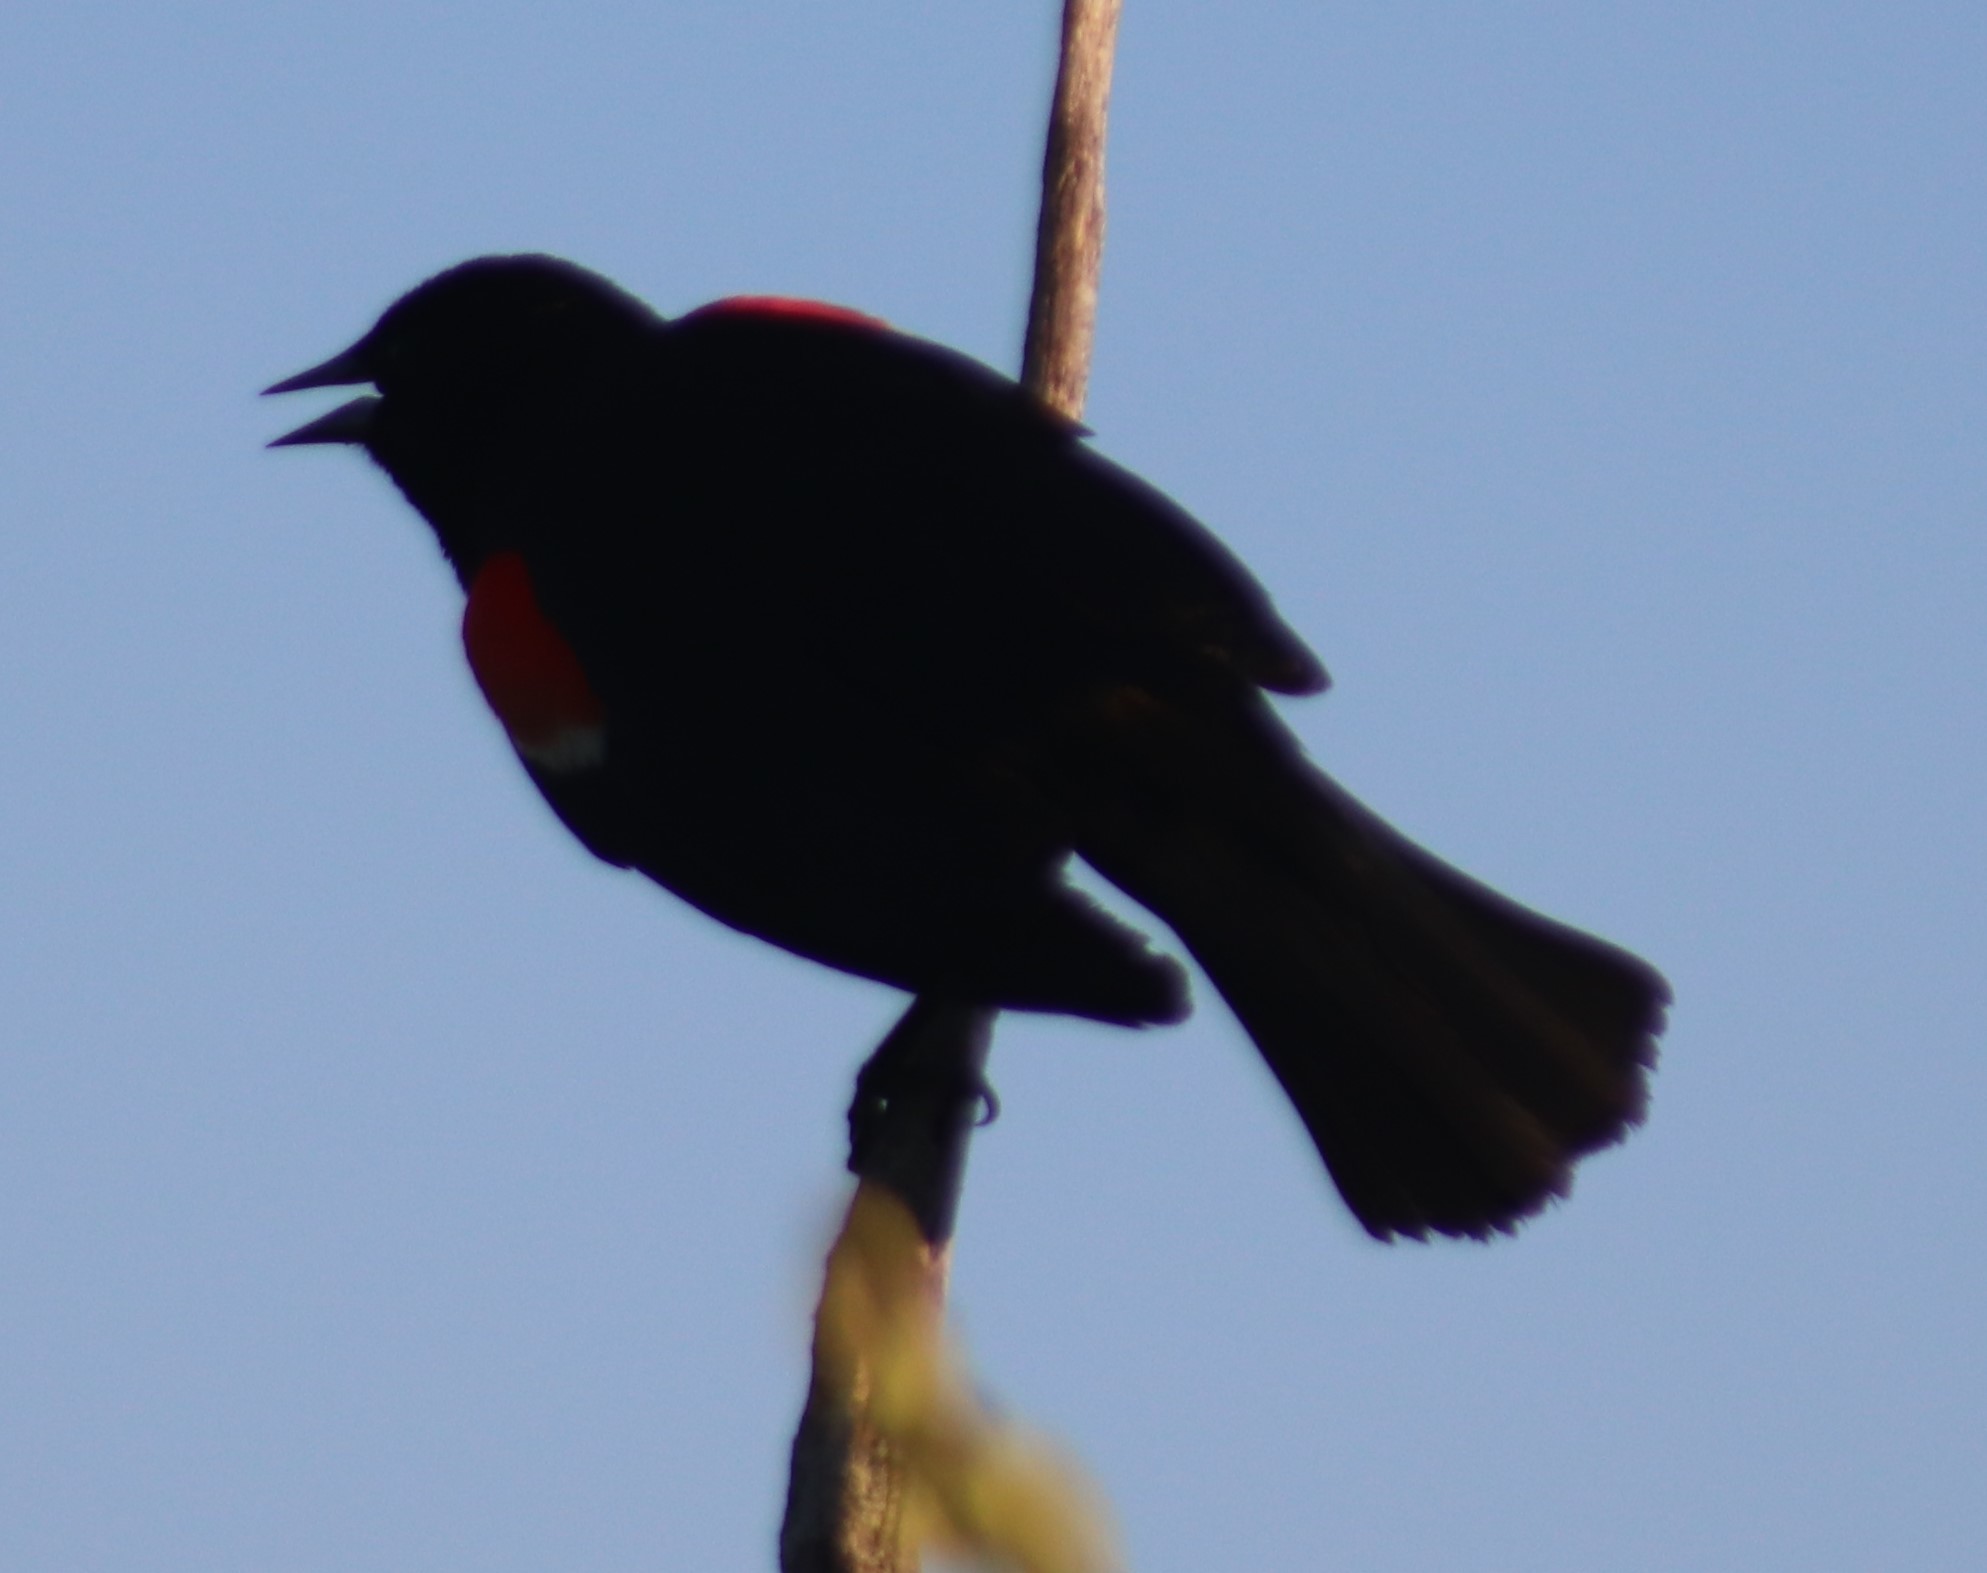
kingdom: Animalia
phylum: Chordata
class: Aves
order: Passeriformes
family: Icteridae
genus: Agelaius
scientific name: Agelaius phoeniceus
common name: Red-winged blackbird
